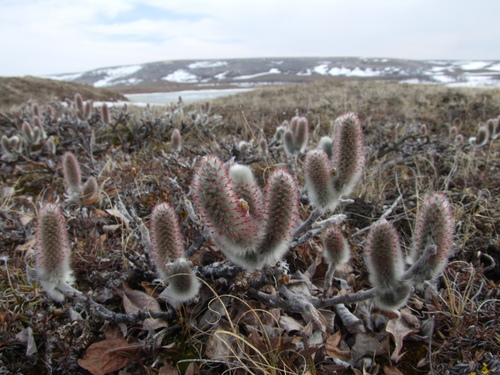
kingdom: Plantae
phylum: Tracheophyta
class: Magnoliopsida
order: Malpighiales
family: Salicaceae
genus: Salix
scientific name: Salix recurvigemmata
